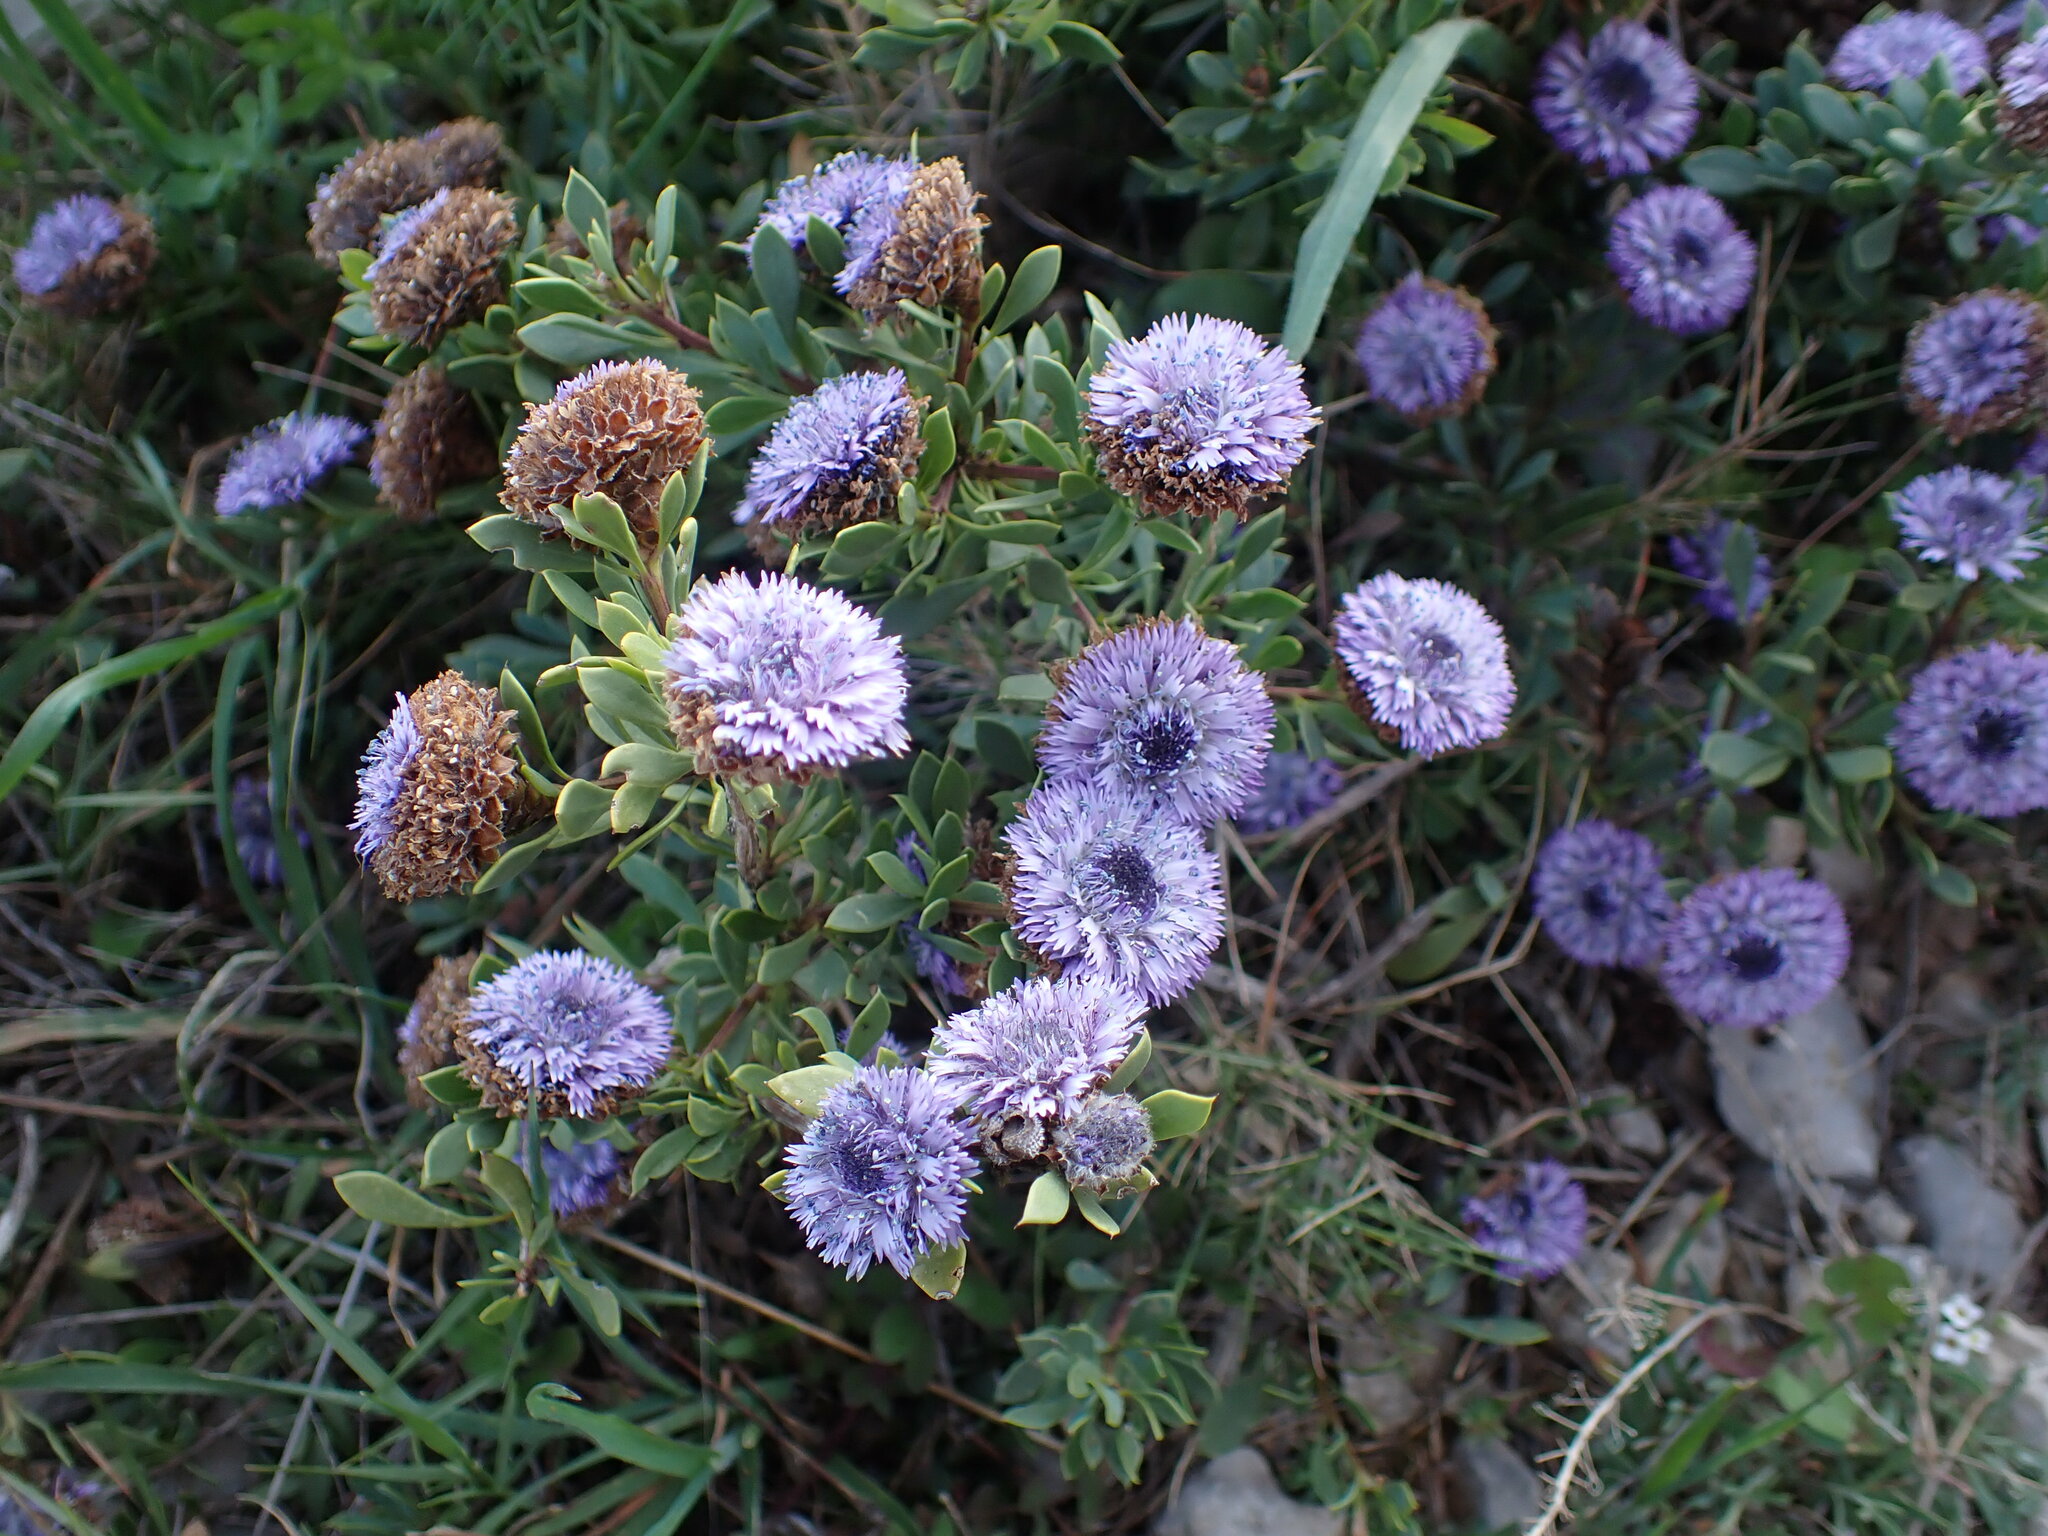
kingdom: Plantae
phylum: Tracheophyta
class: Magnoliopsida
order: Lamiales
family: Plantaginaceae
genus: Globularia
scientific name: Globularia alypum
